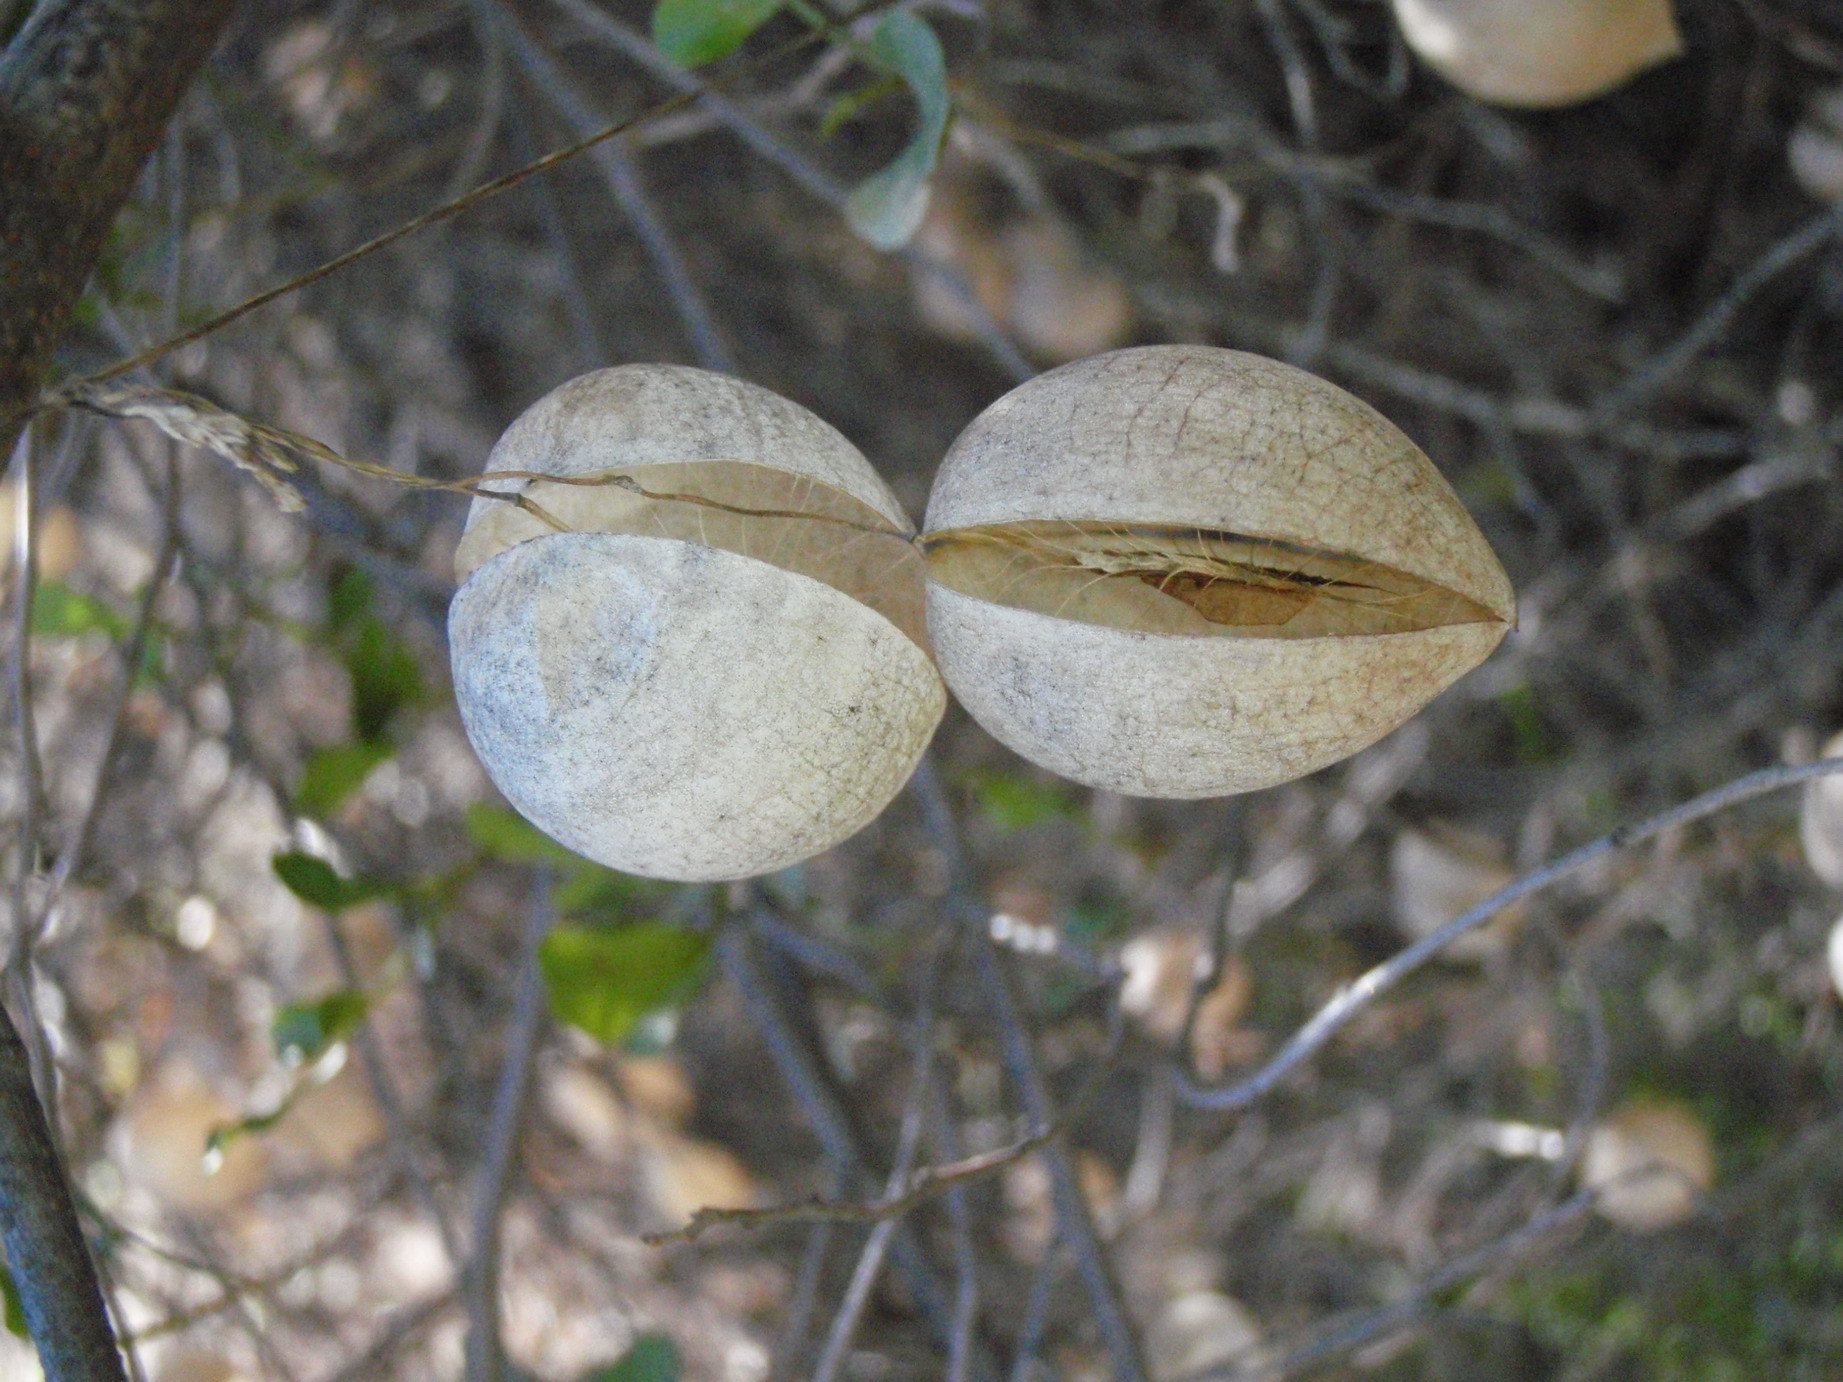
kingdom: Plantae
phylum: Tracheophyta
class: Magnoliopsida
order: Ranunculales
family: Papaveraceae
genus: Cysticapnos
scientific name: Cysticapnos vesicaria
